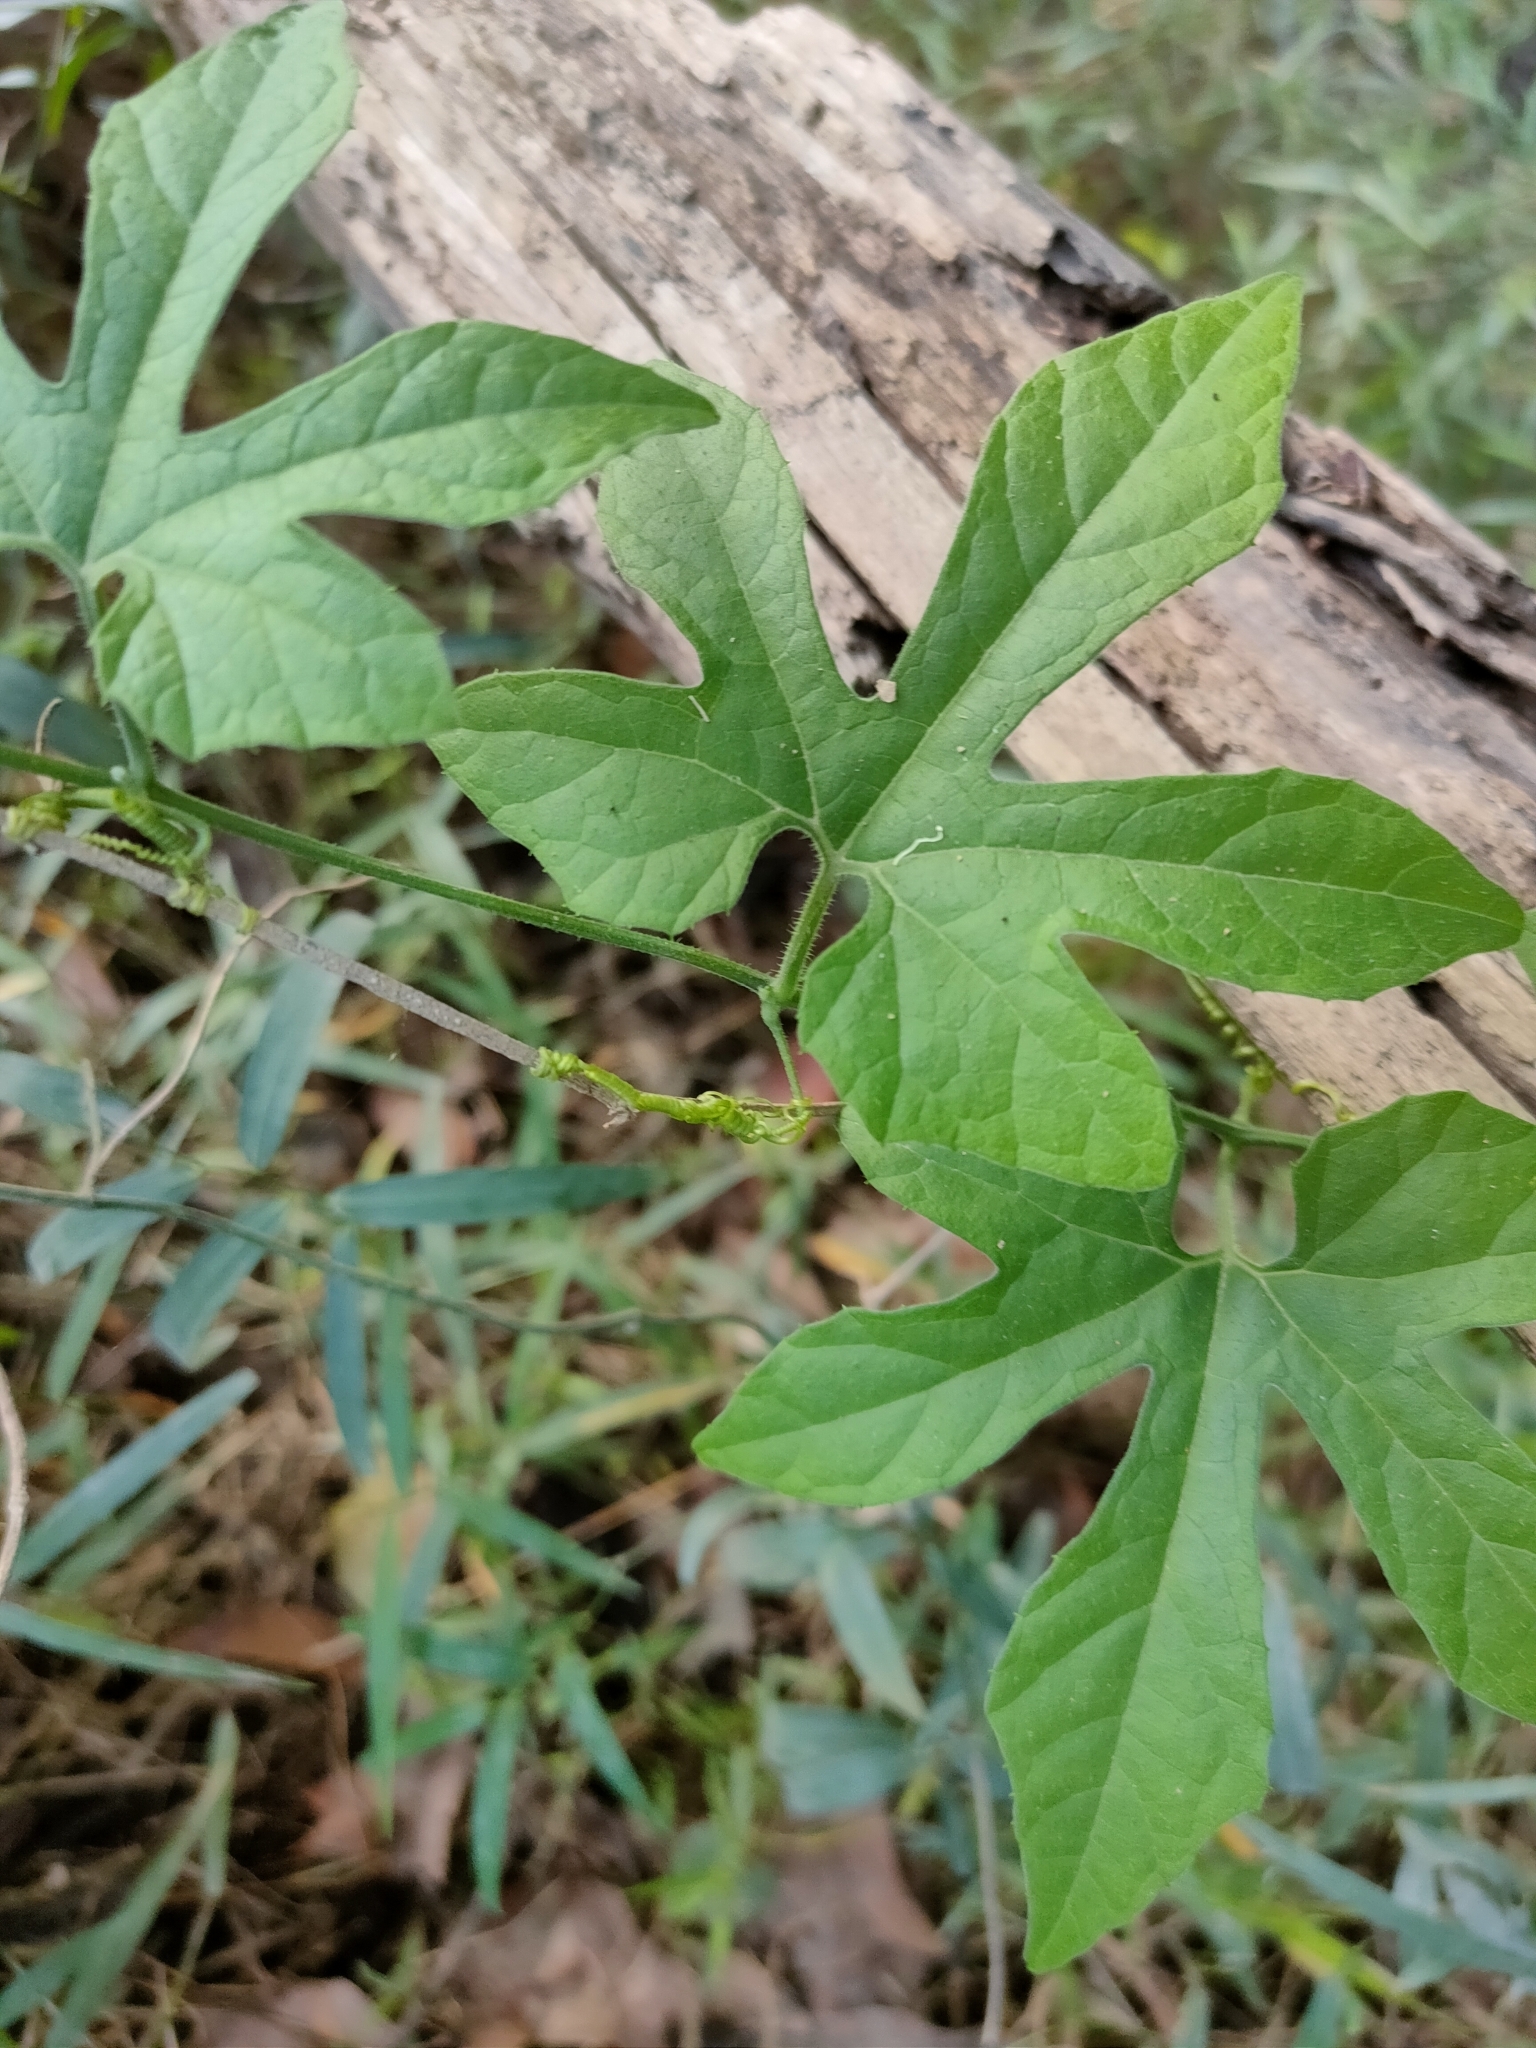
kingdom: Plantae
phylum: Tracheophyta
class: Magnoliopsida
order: Cucurbitales
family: Cucurbitaceae
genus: Diplocyclos
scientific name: Diplocyclos palmatus
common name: Striped-cucumber
